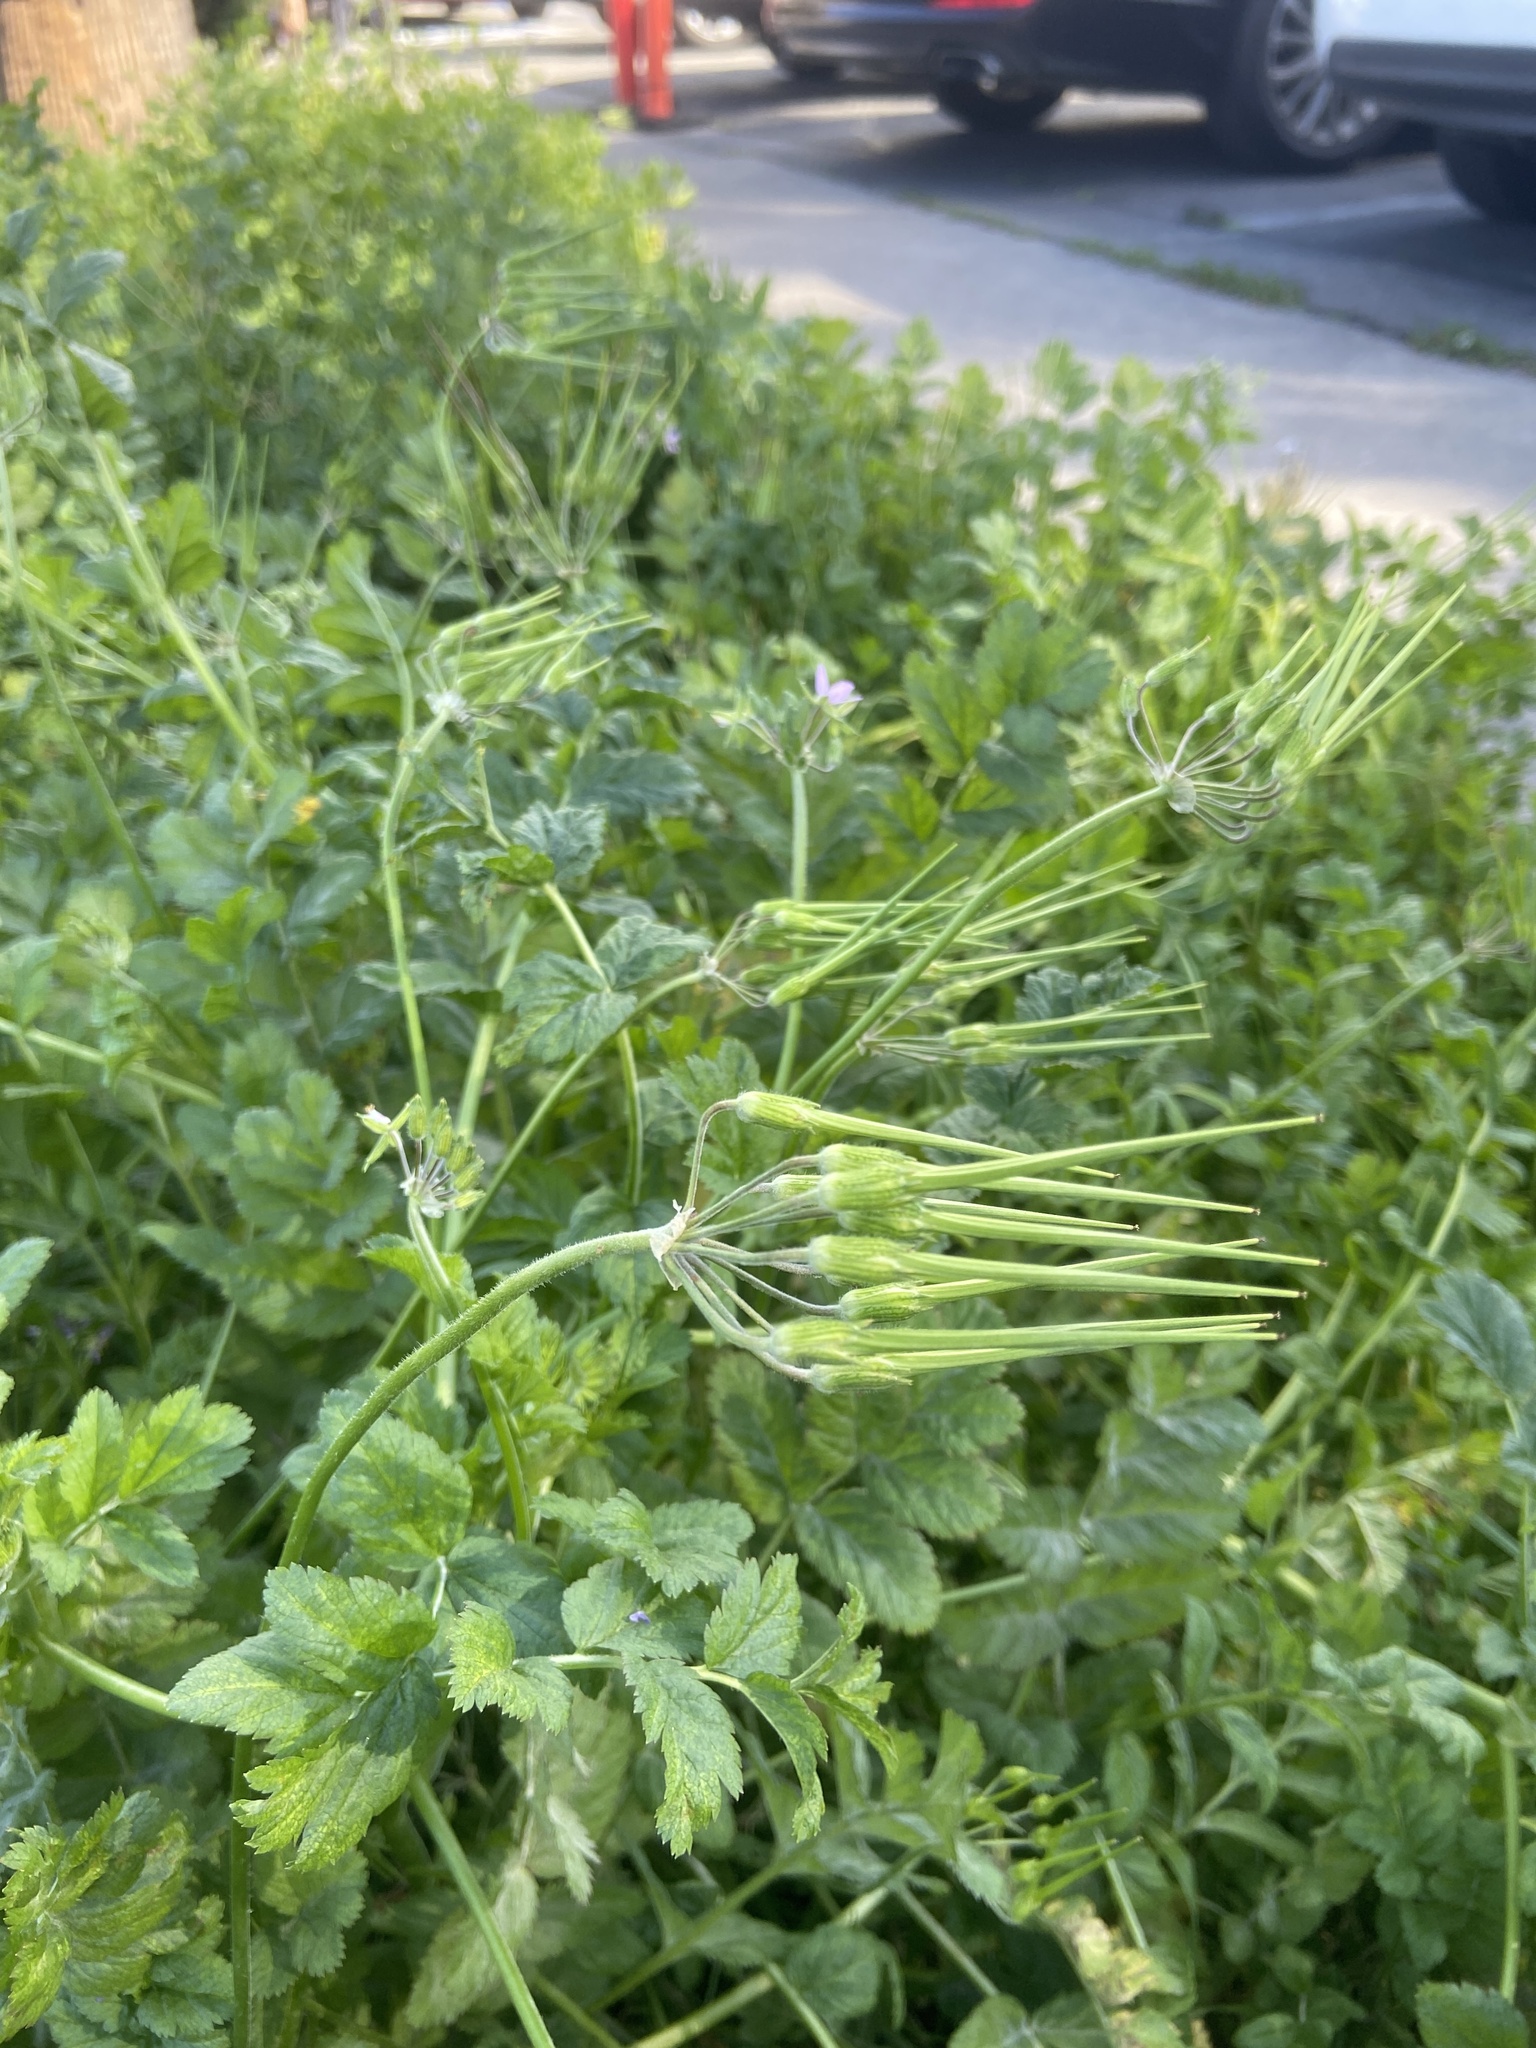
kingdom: Plantae
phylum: Tracheophyta
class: Magnoliopsida
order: Geraniales
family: Geraniaceae
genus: Erodium
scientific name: Erodium moschatum
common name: Musk stork's-bill
